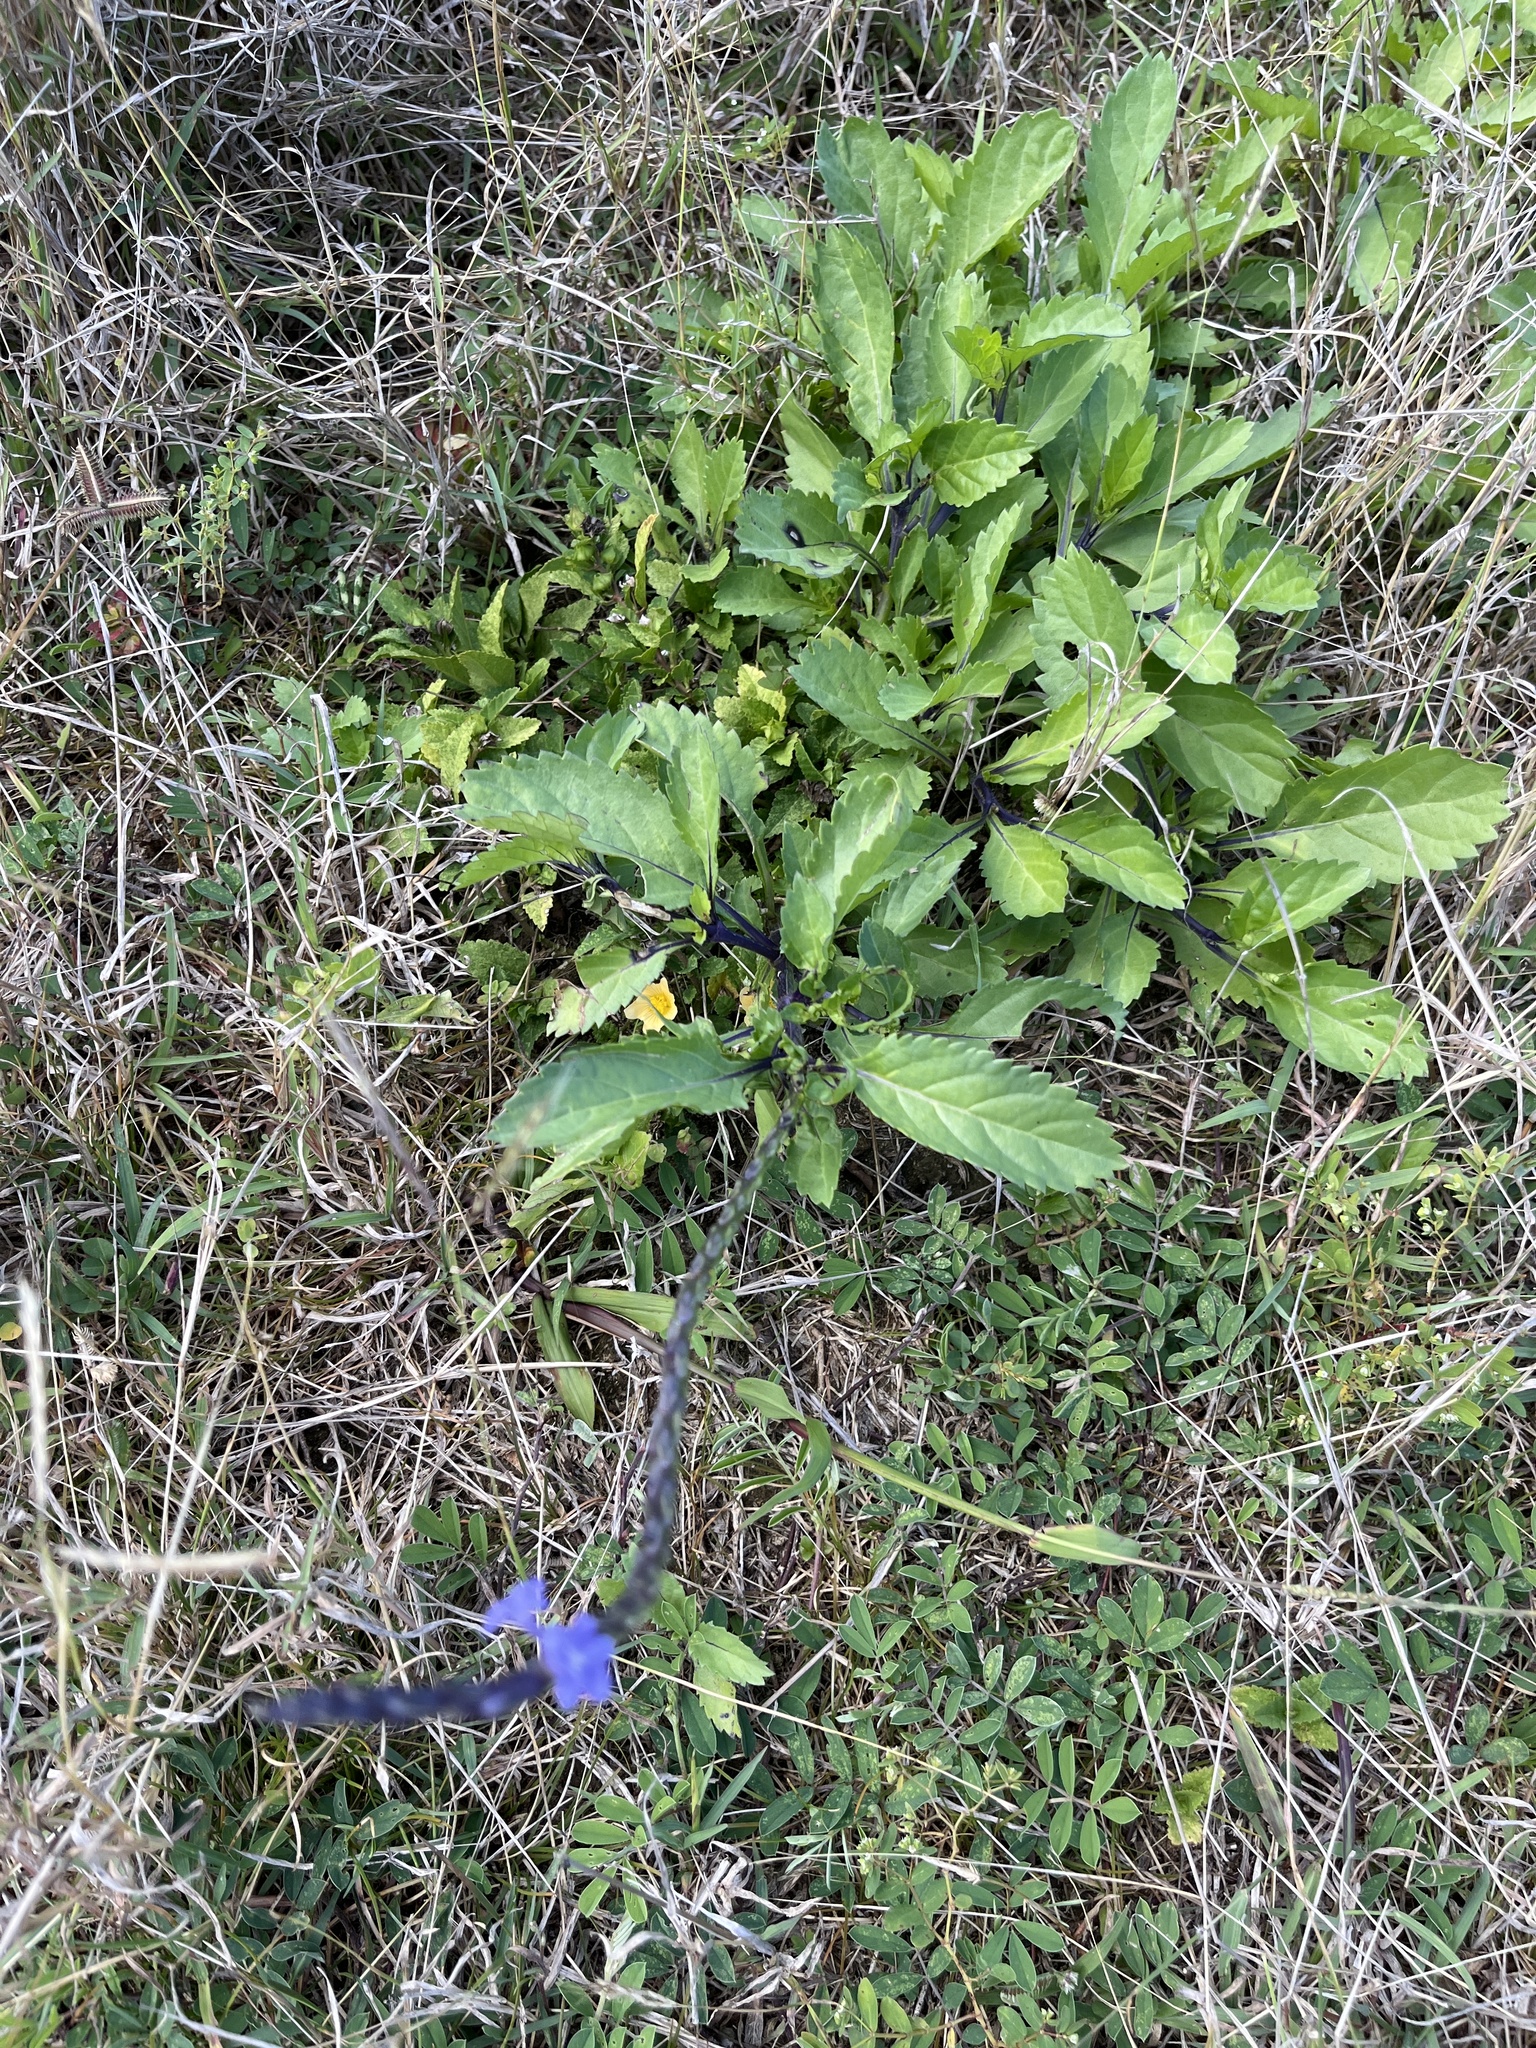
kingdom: Plantae
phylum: Tracheophyta
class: Magnoliopsida
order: Lamiales
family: Verbenaceae
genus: Stachytarpheta
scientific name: Stachytarpheta jamaicensis
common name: Light-blue snakeweed
